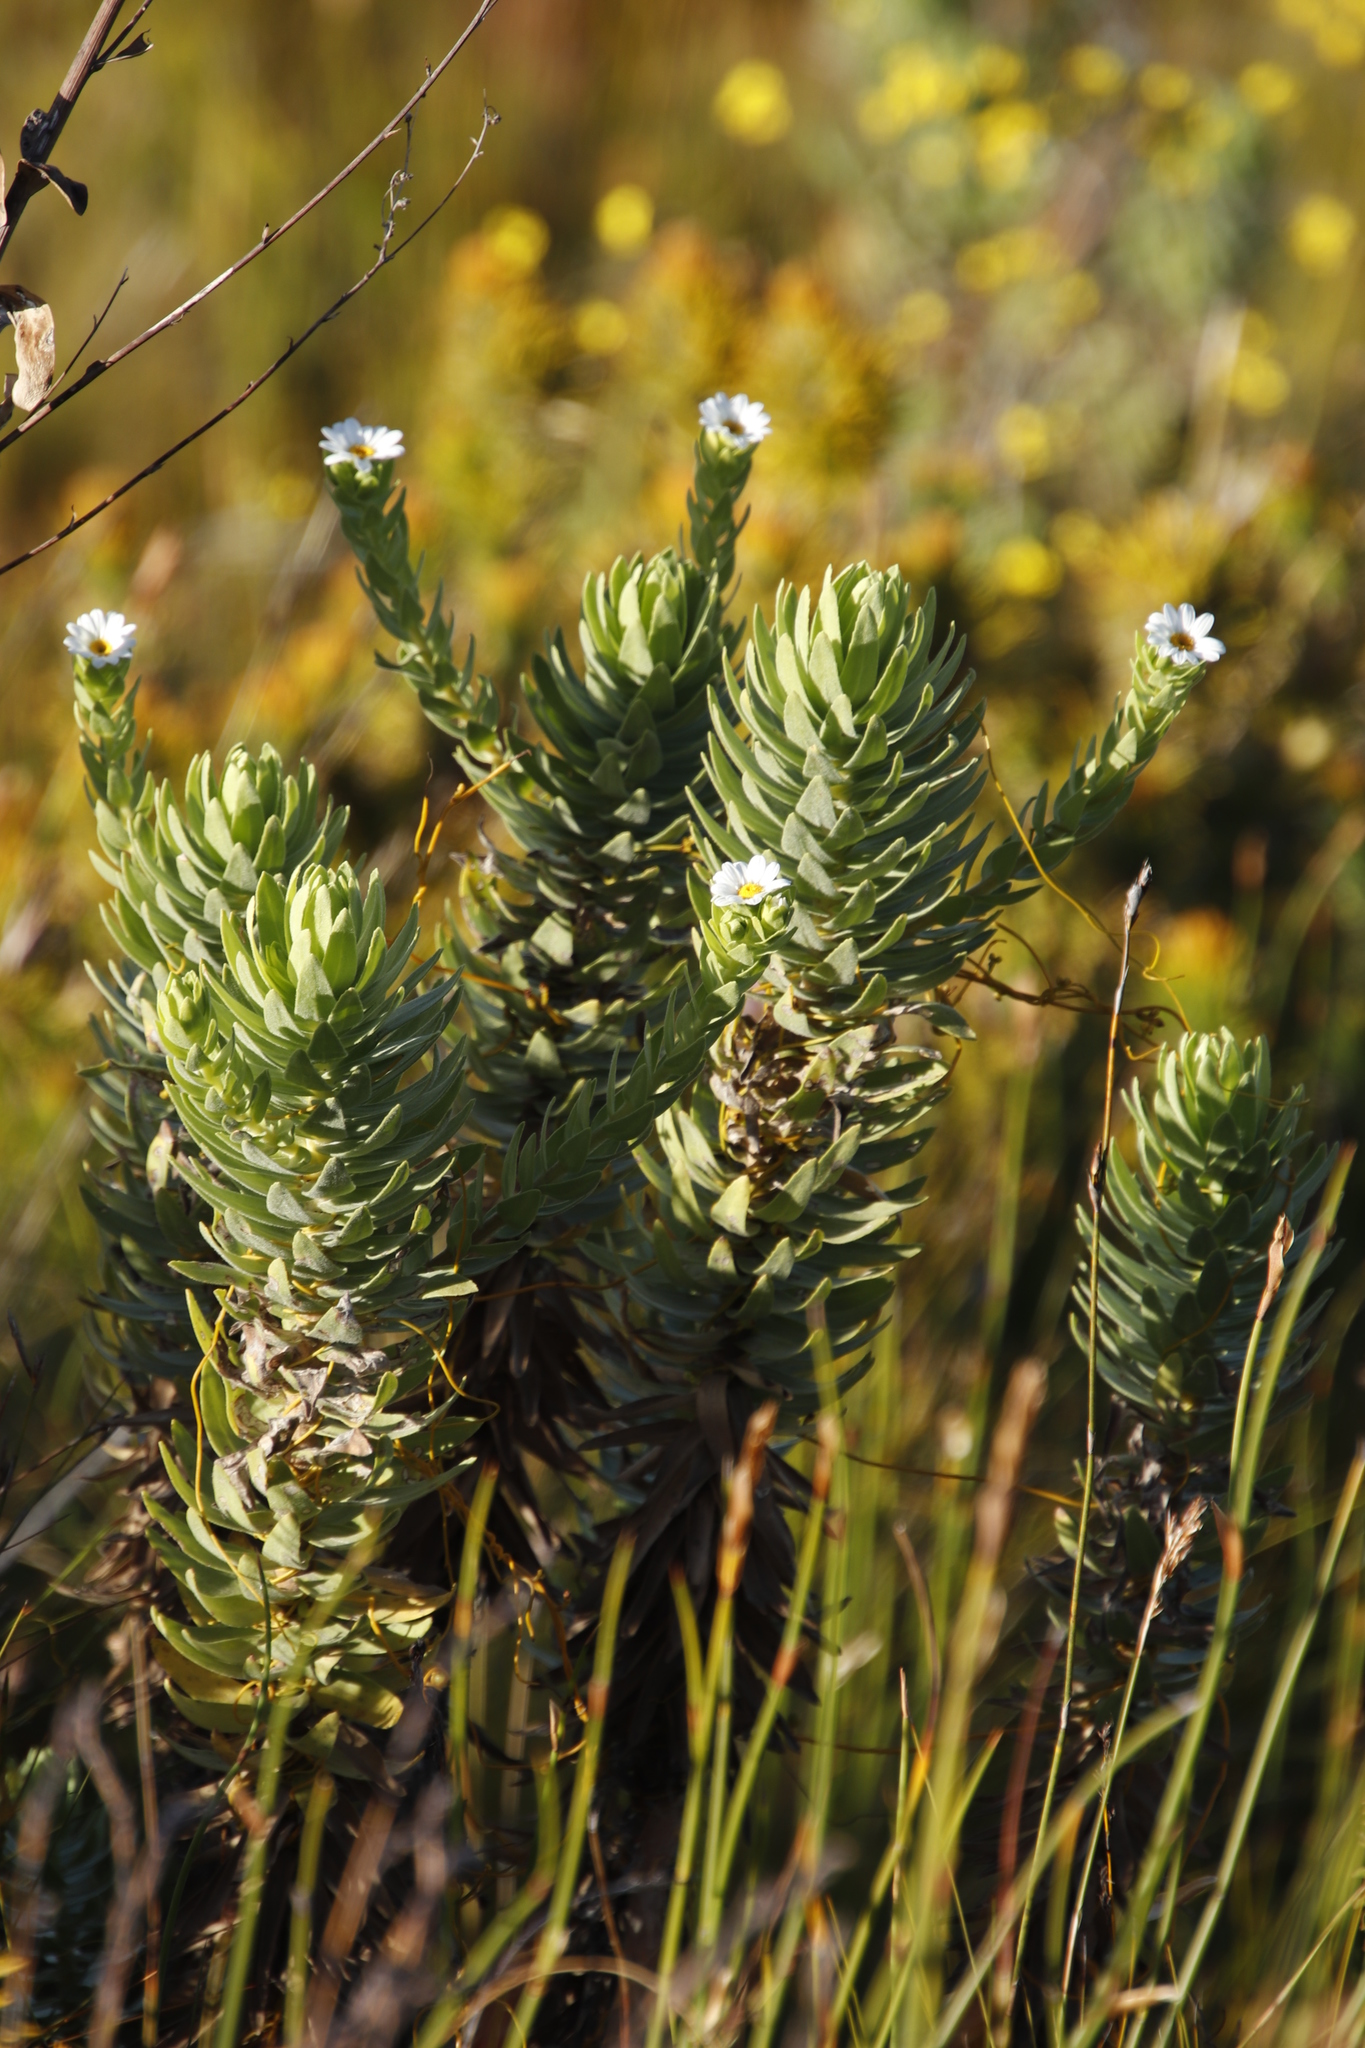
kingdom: Plantae
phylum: Tracheophyta
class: Magnoliopsida
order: Asterales
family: Asteraceae
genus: Osmitopsis
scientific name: Osmitopsis asteriscoides
